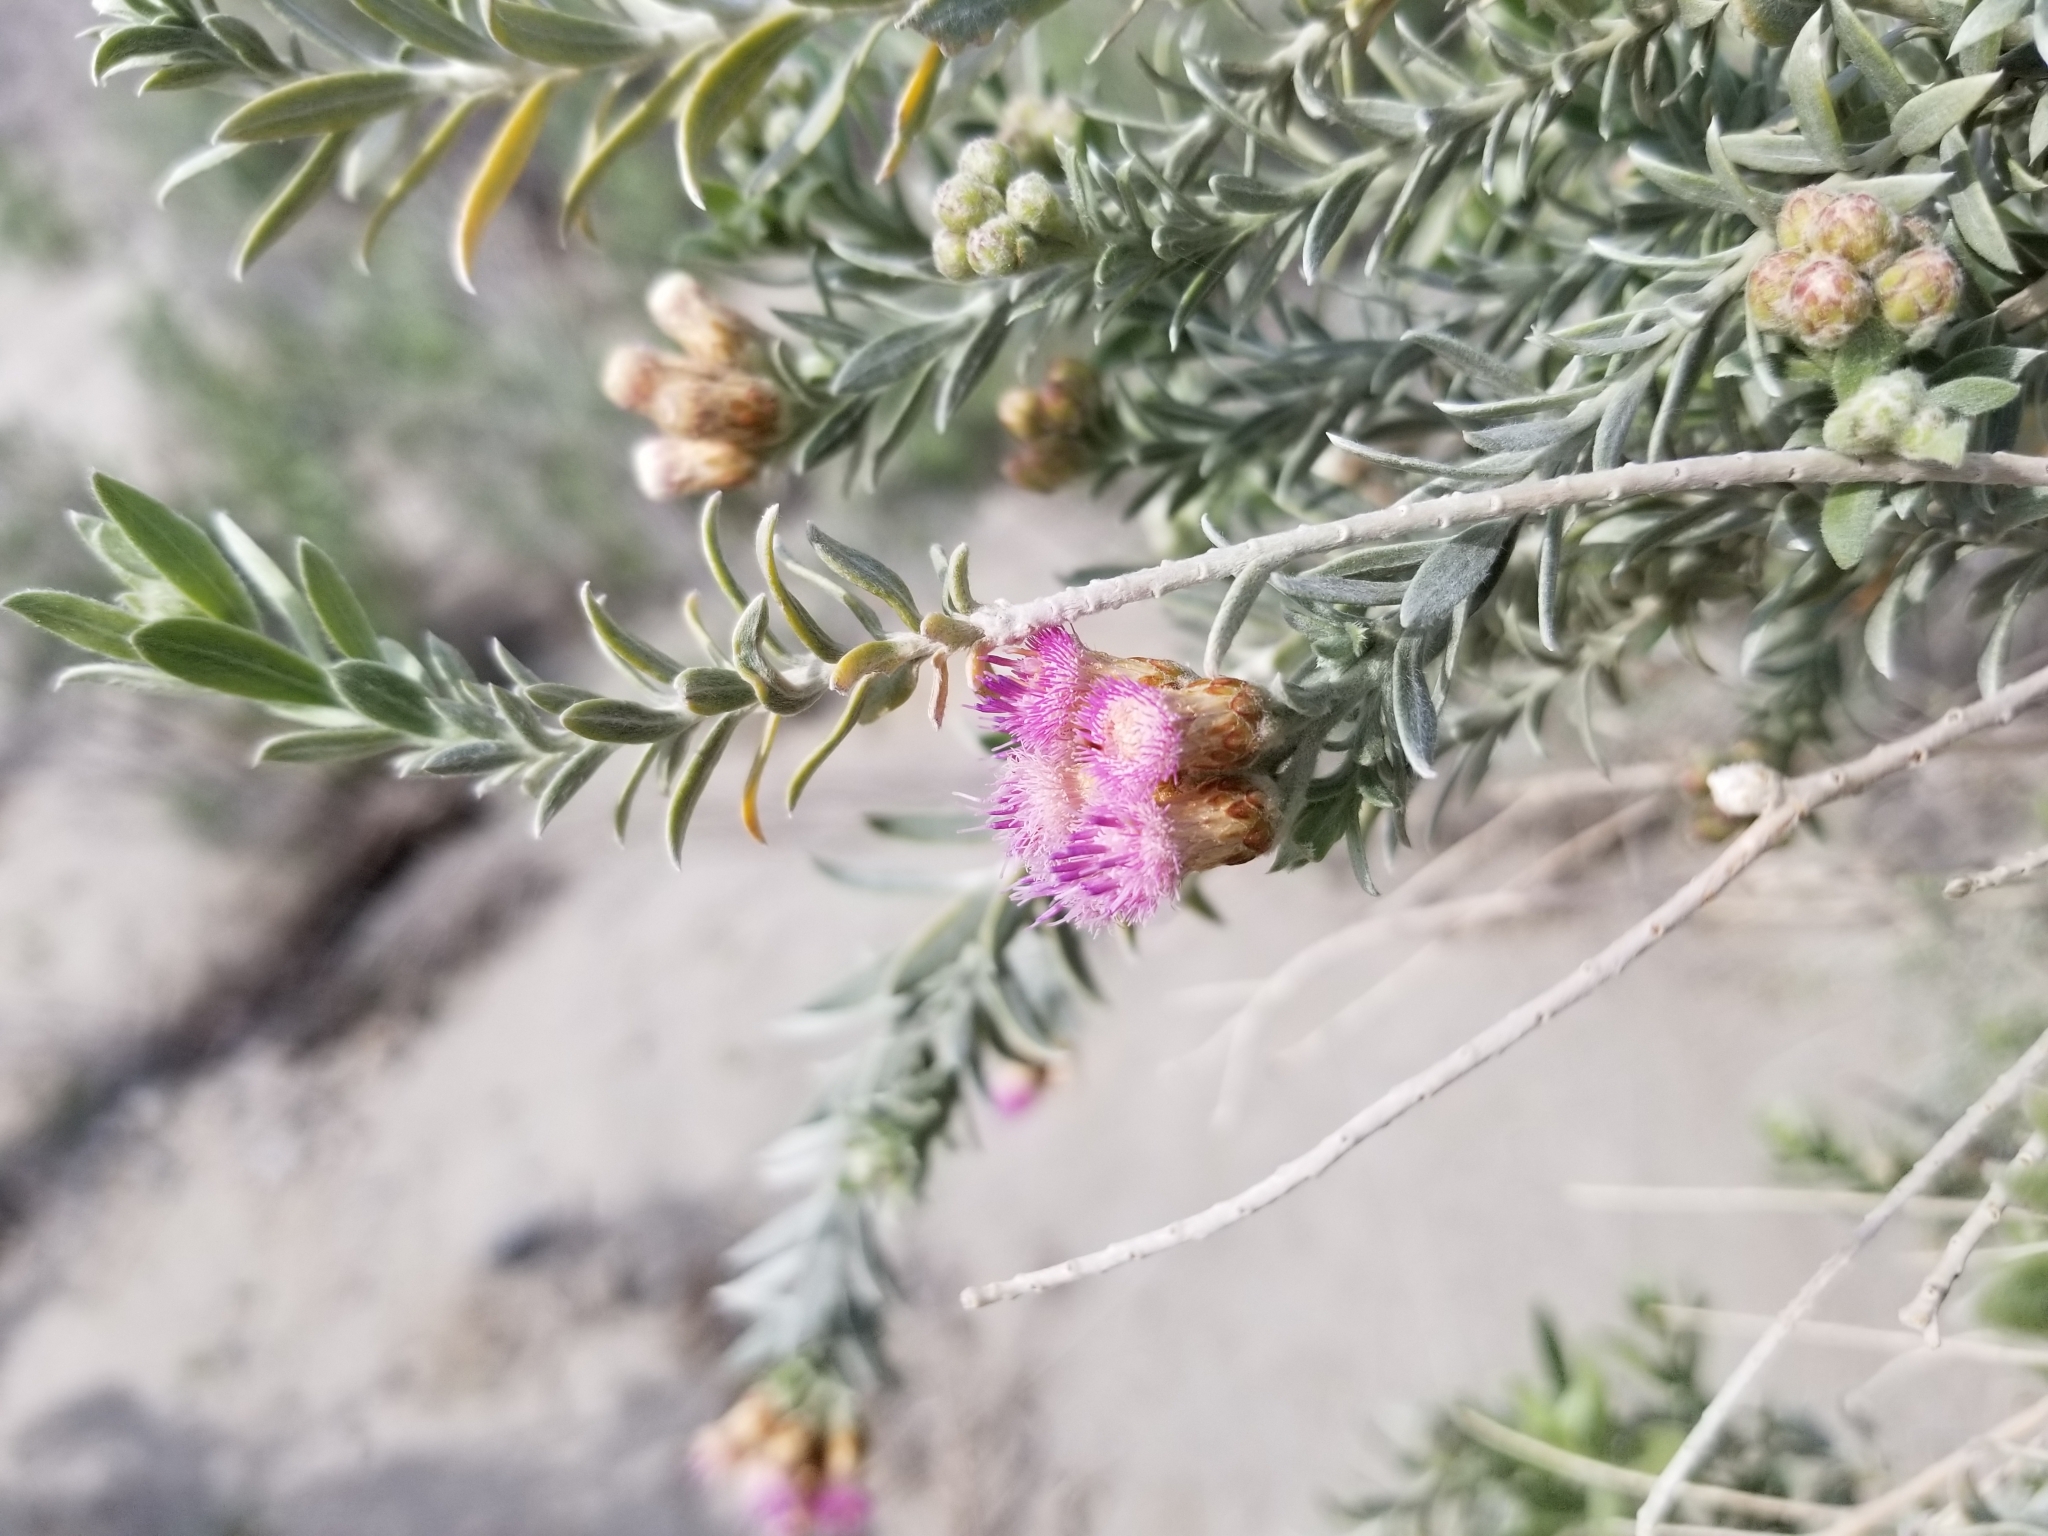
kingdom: Plantae
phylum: Tracheophyta
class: Magnoliopsida
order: Asterales
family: Asteraceae
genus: Pluchea
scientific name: Pluchea sericea
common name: Arrow-weed
